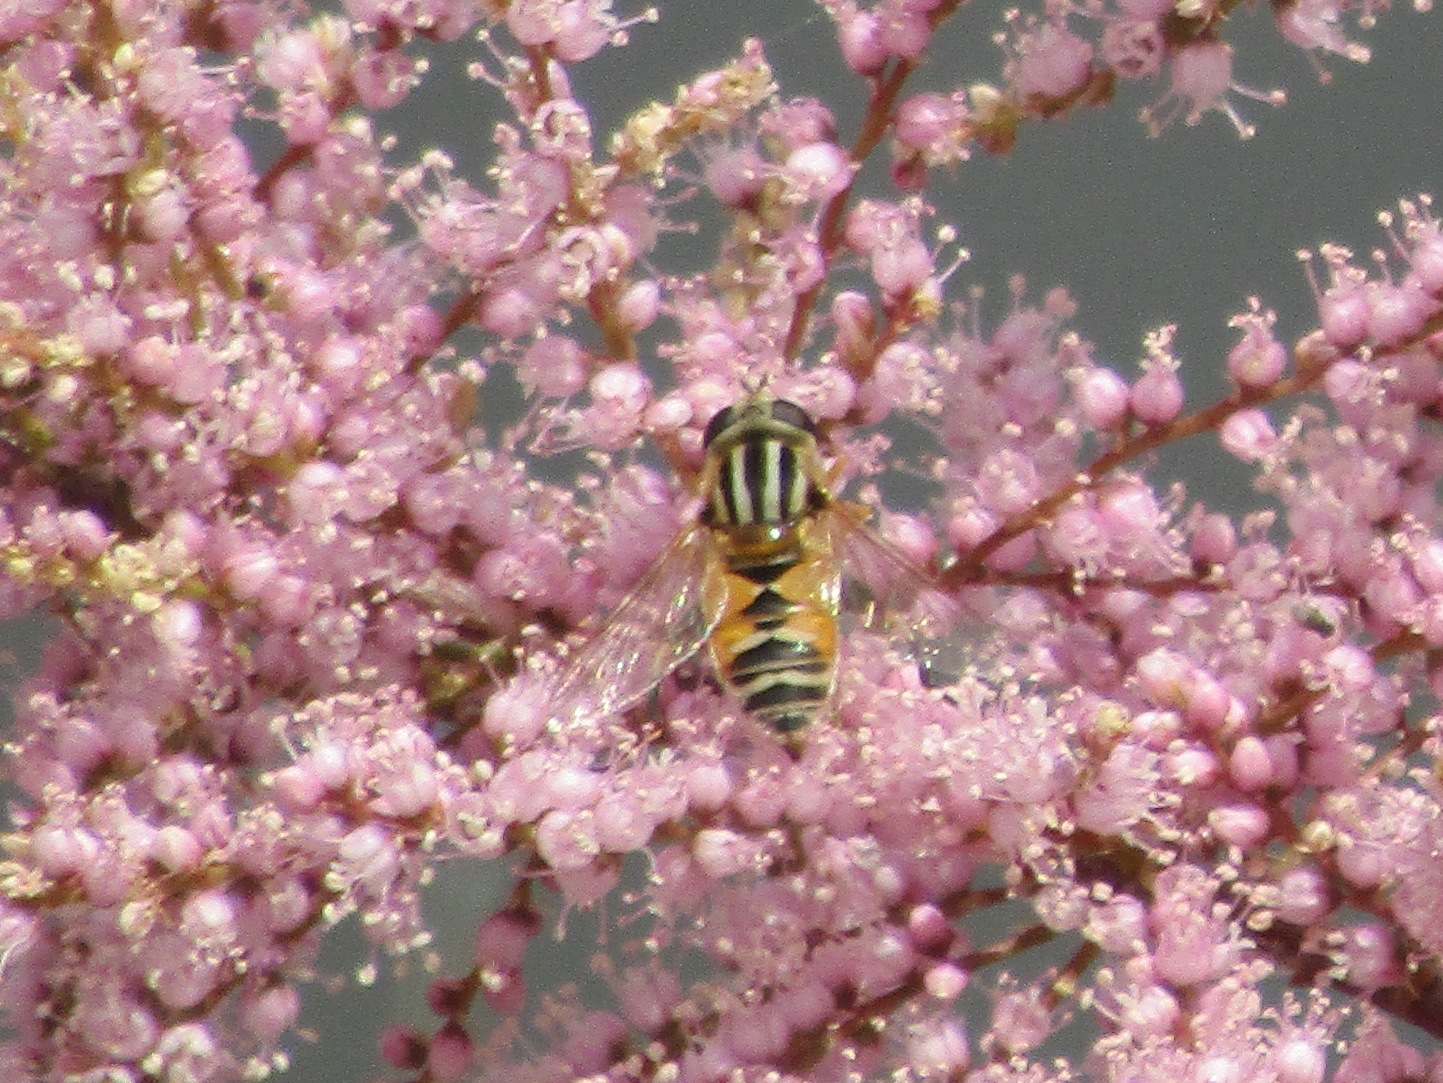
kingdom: Animalia
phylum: Arthropoda
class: Insecta
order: Diptera
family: Syrphidae
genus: Helophilus
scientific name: Helophilus continuus
